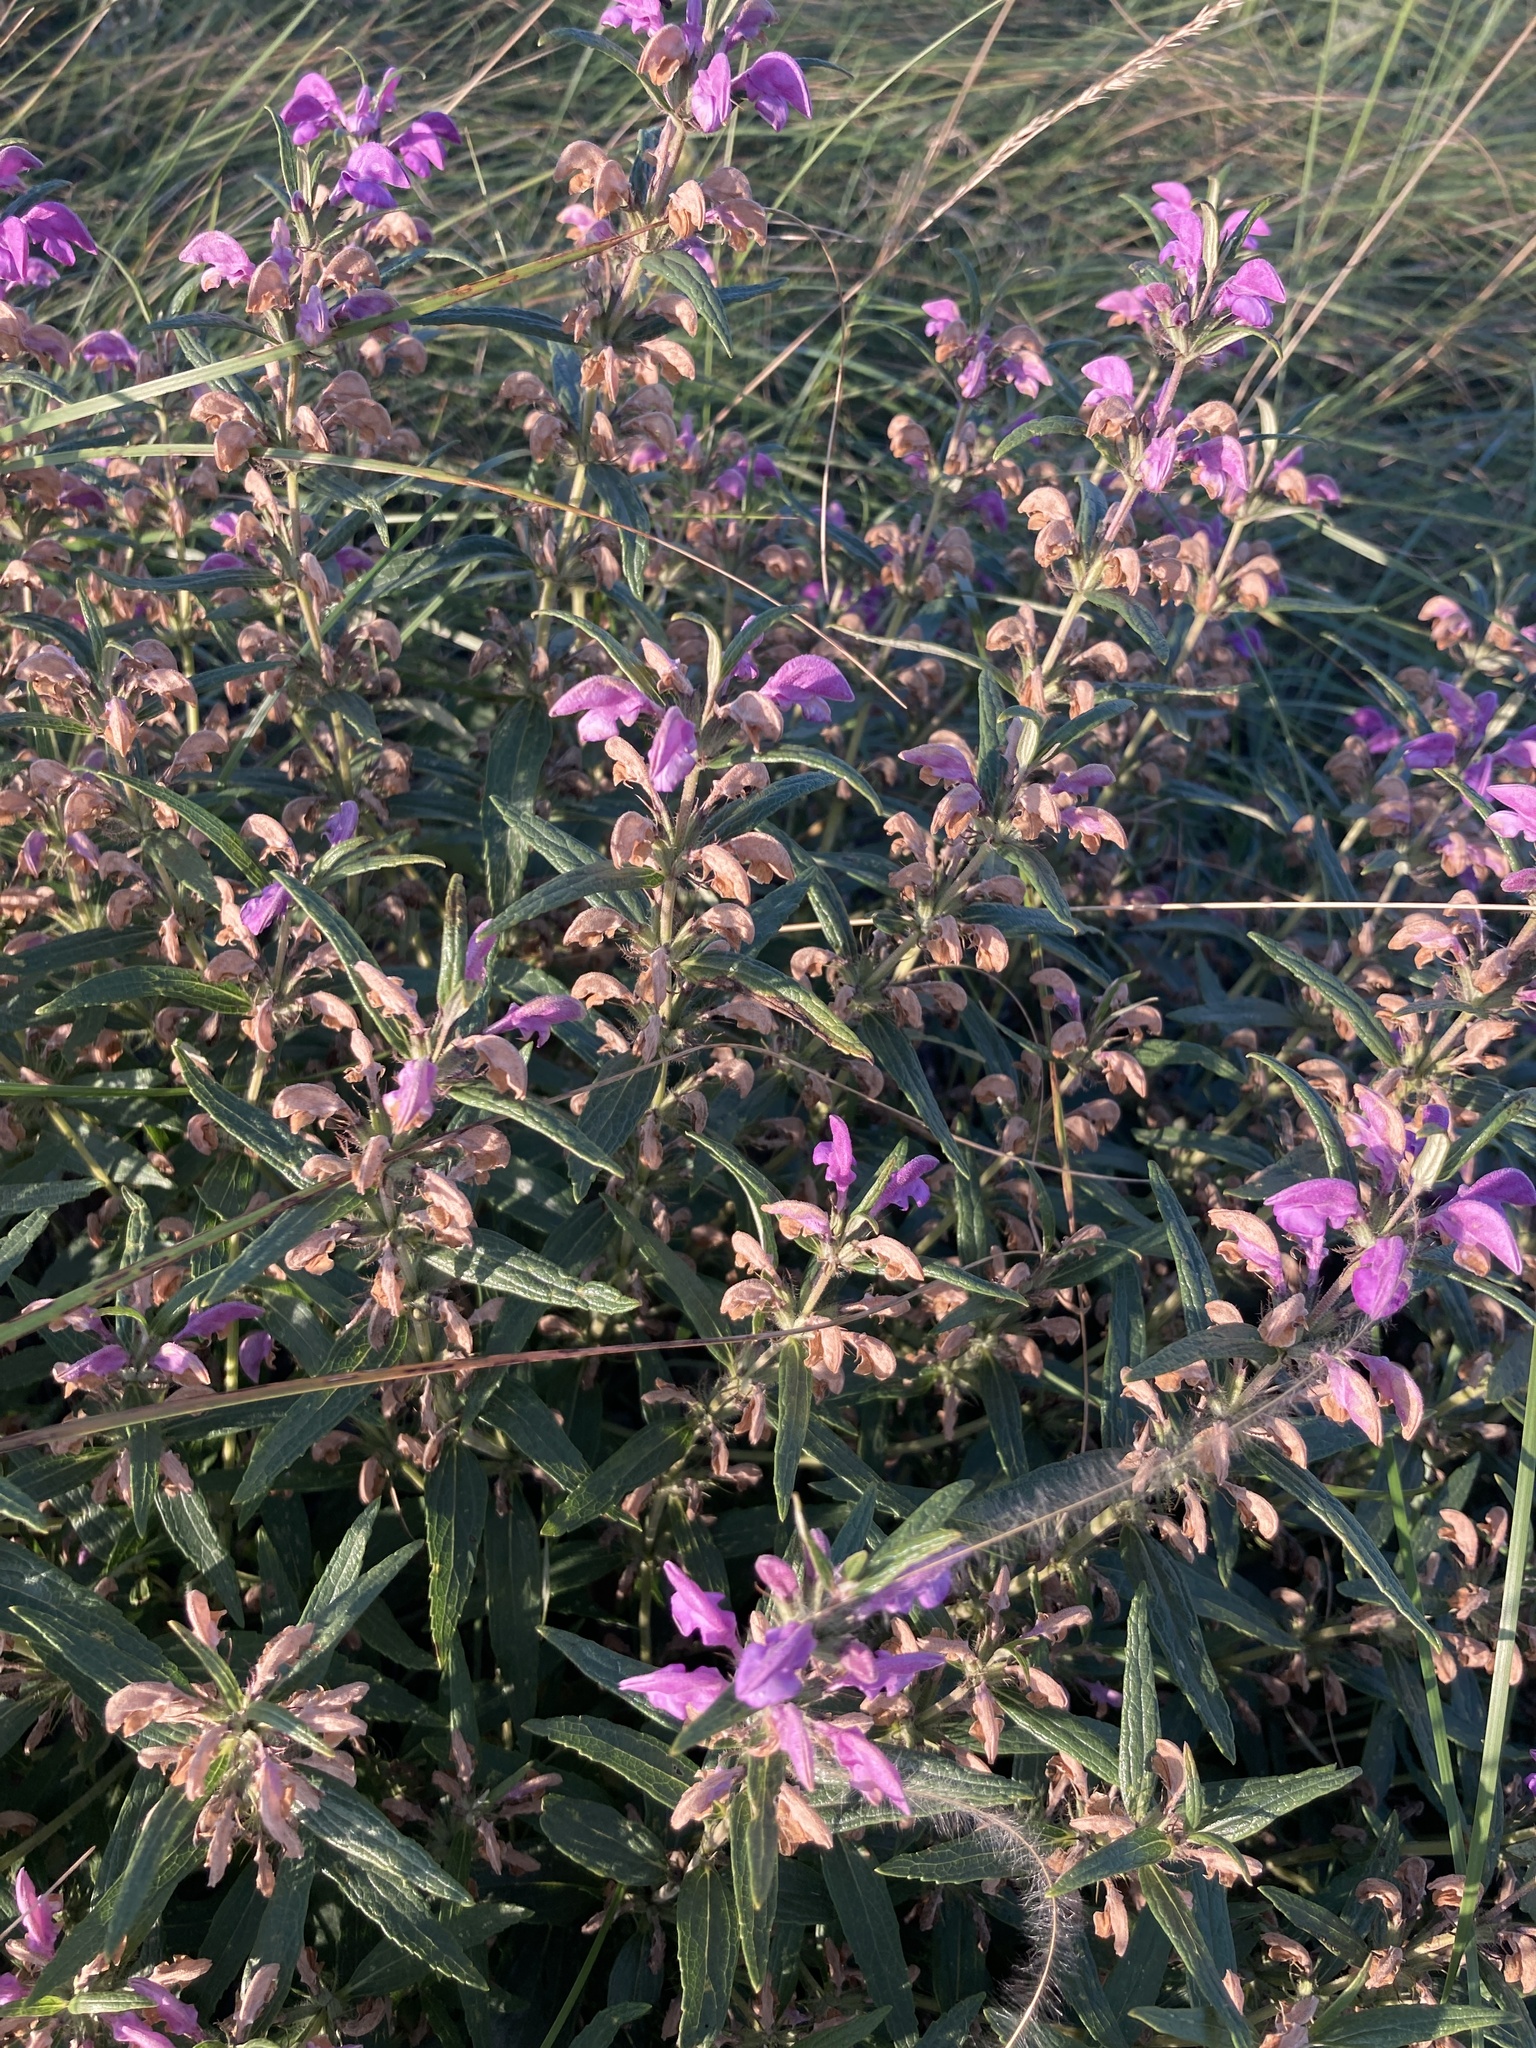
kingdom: Plantae
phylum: Tracheophyta
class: Magnoliopsida
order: Lamiales
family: Lamiaceae
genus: Phlomis
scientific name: Phlomis herba-venti
